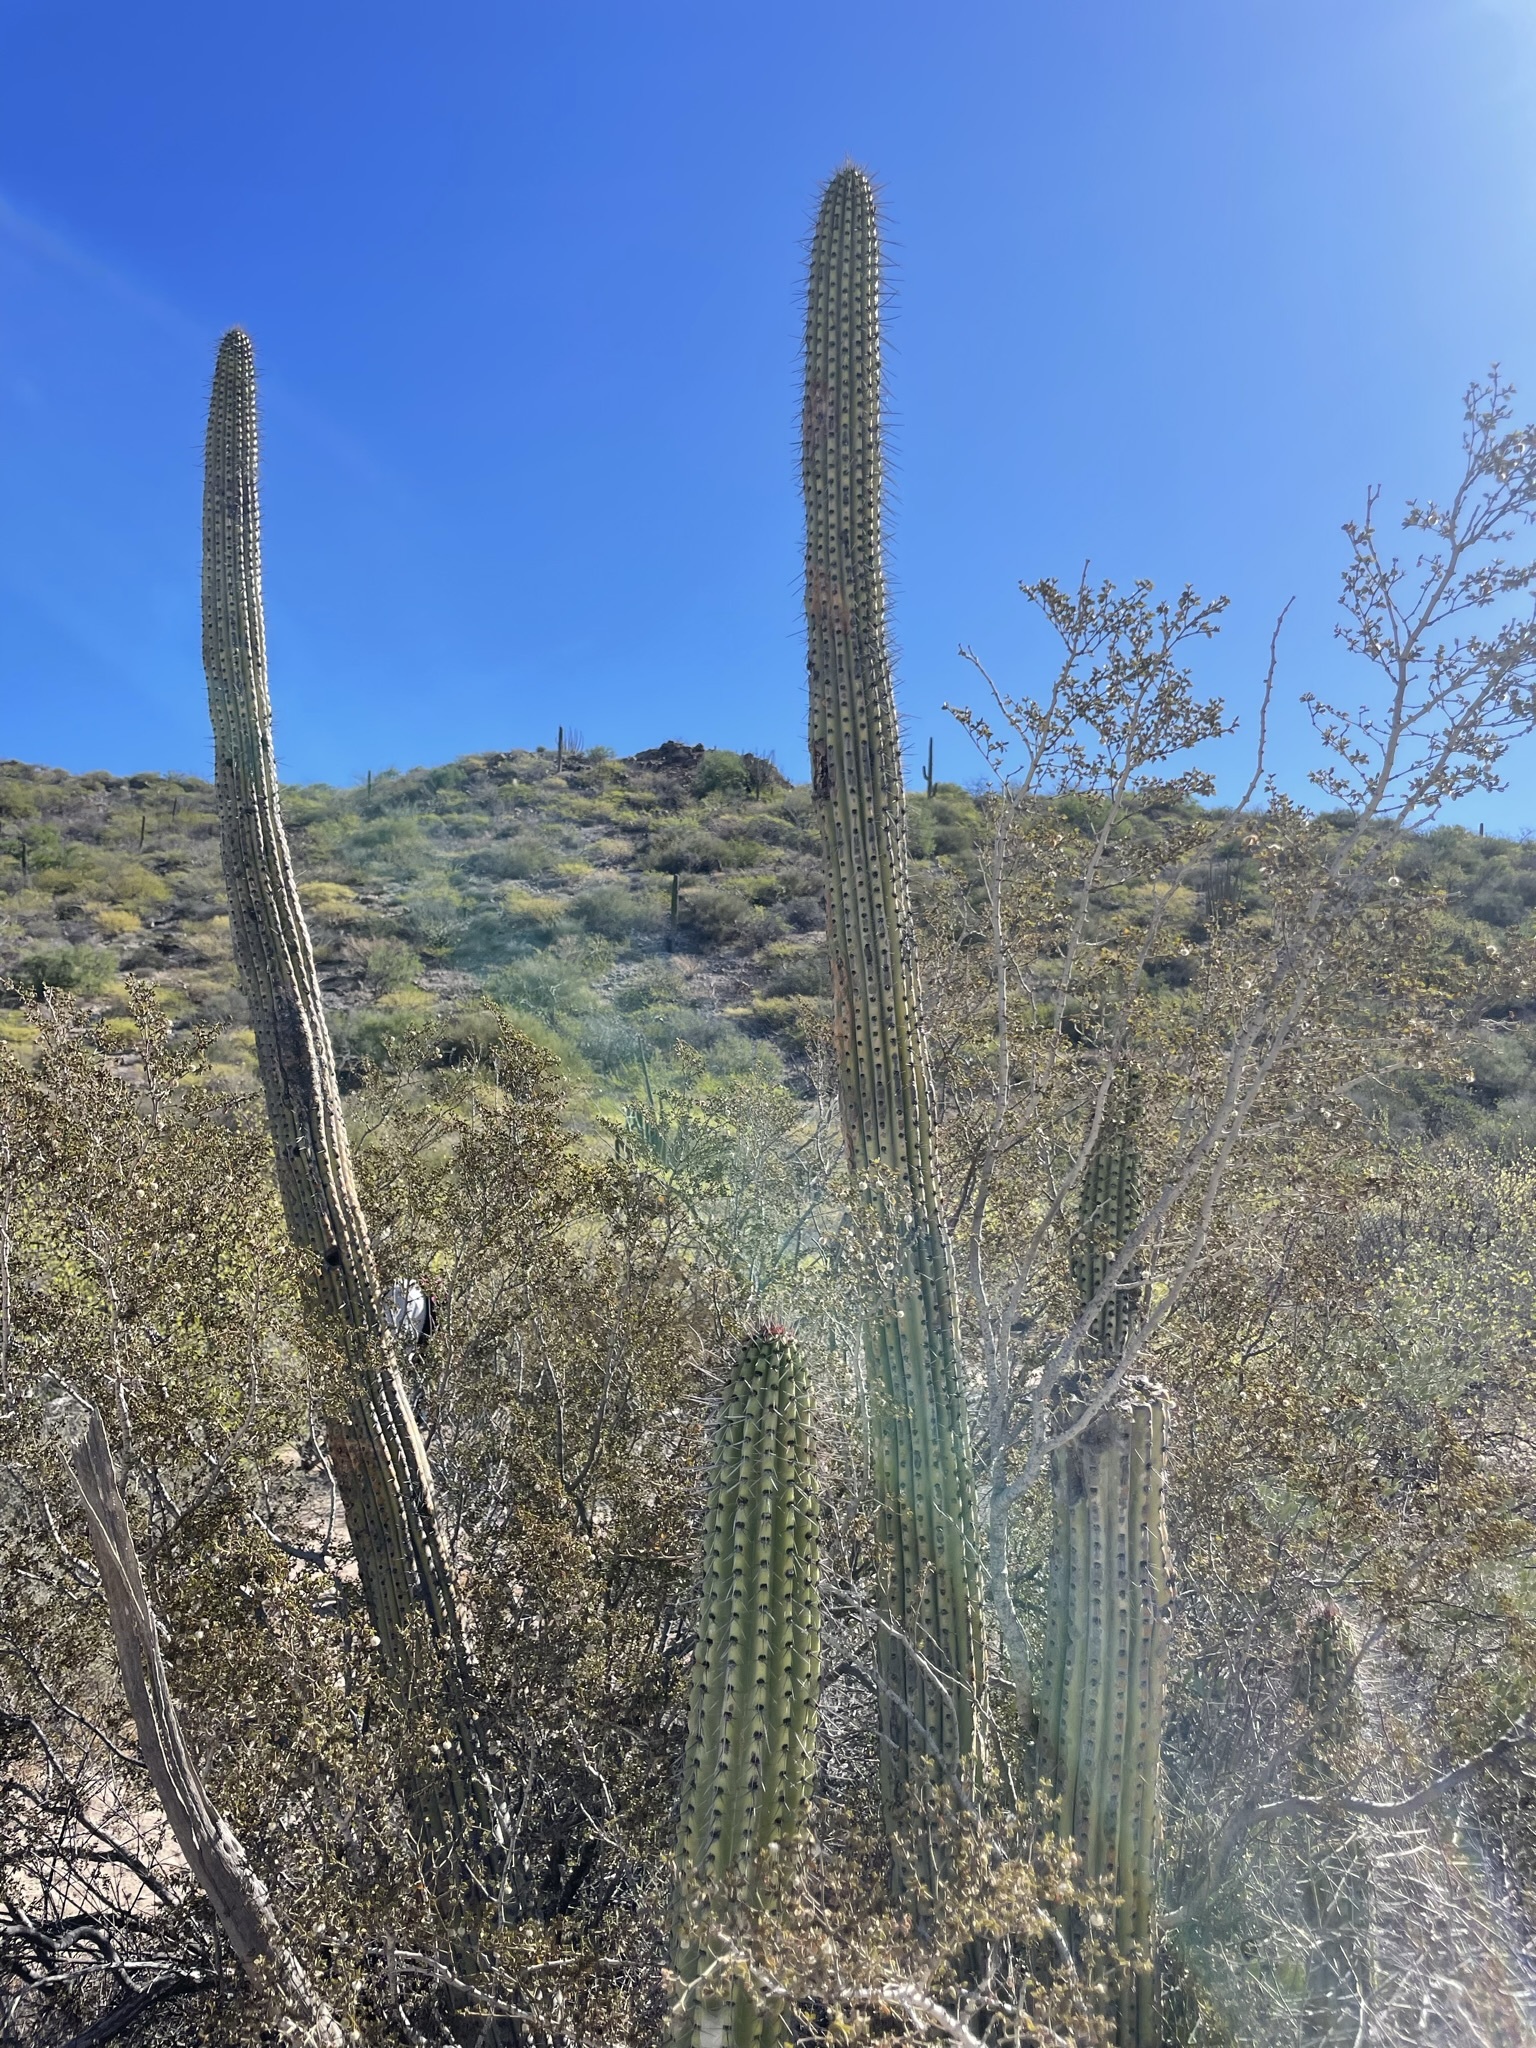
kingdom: Plantae
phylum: Tracheophyta
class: Magnoliopsida
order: Caryophyllales
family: Cactaceae
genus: Stenocereus
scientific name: Stenocereus thurberi
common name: Organ pipe cactus
